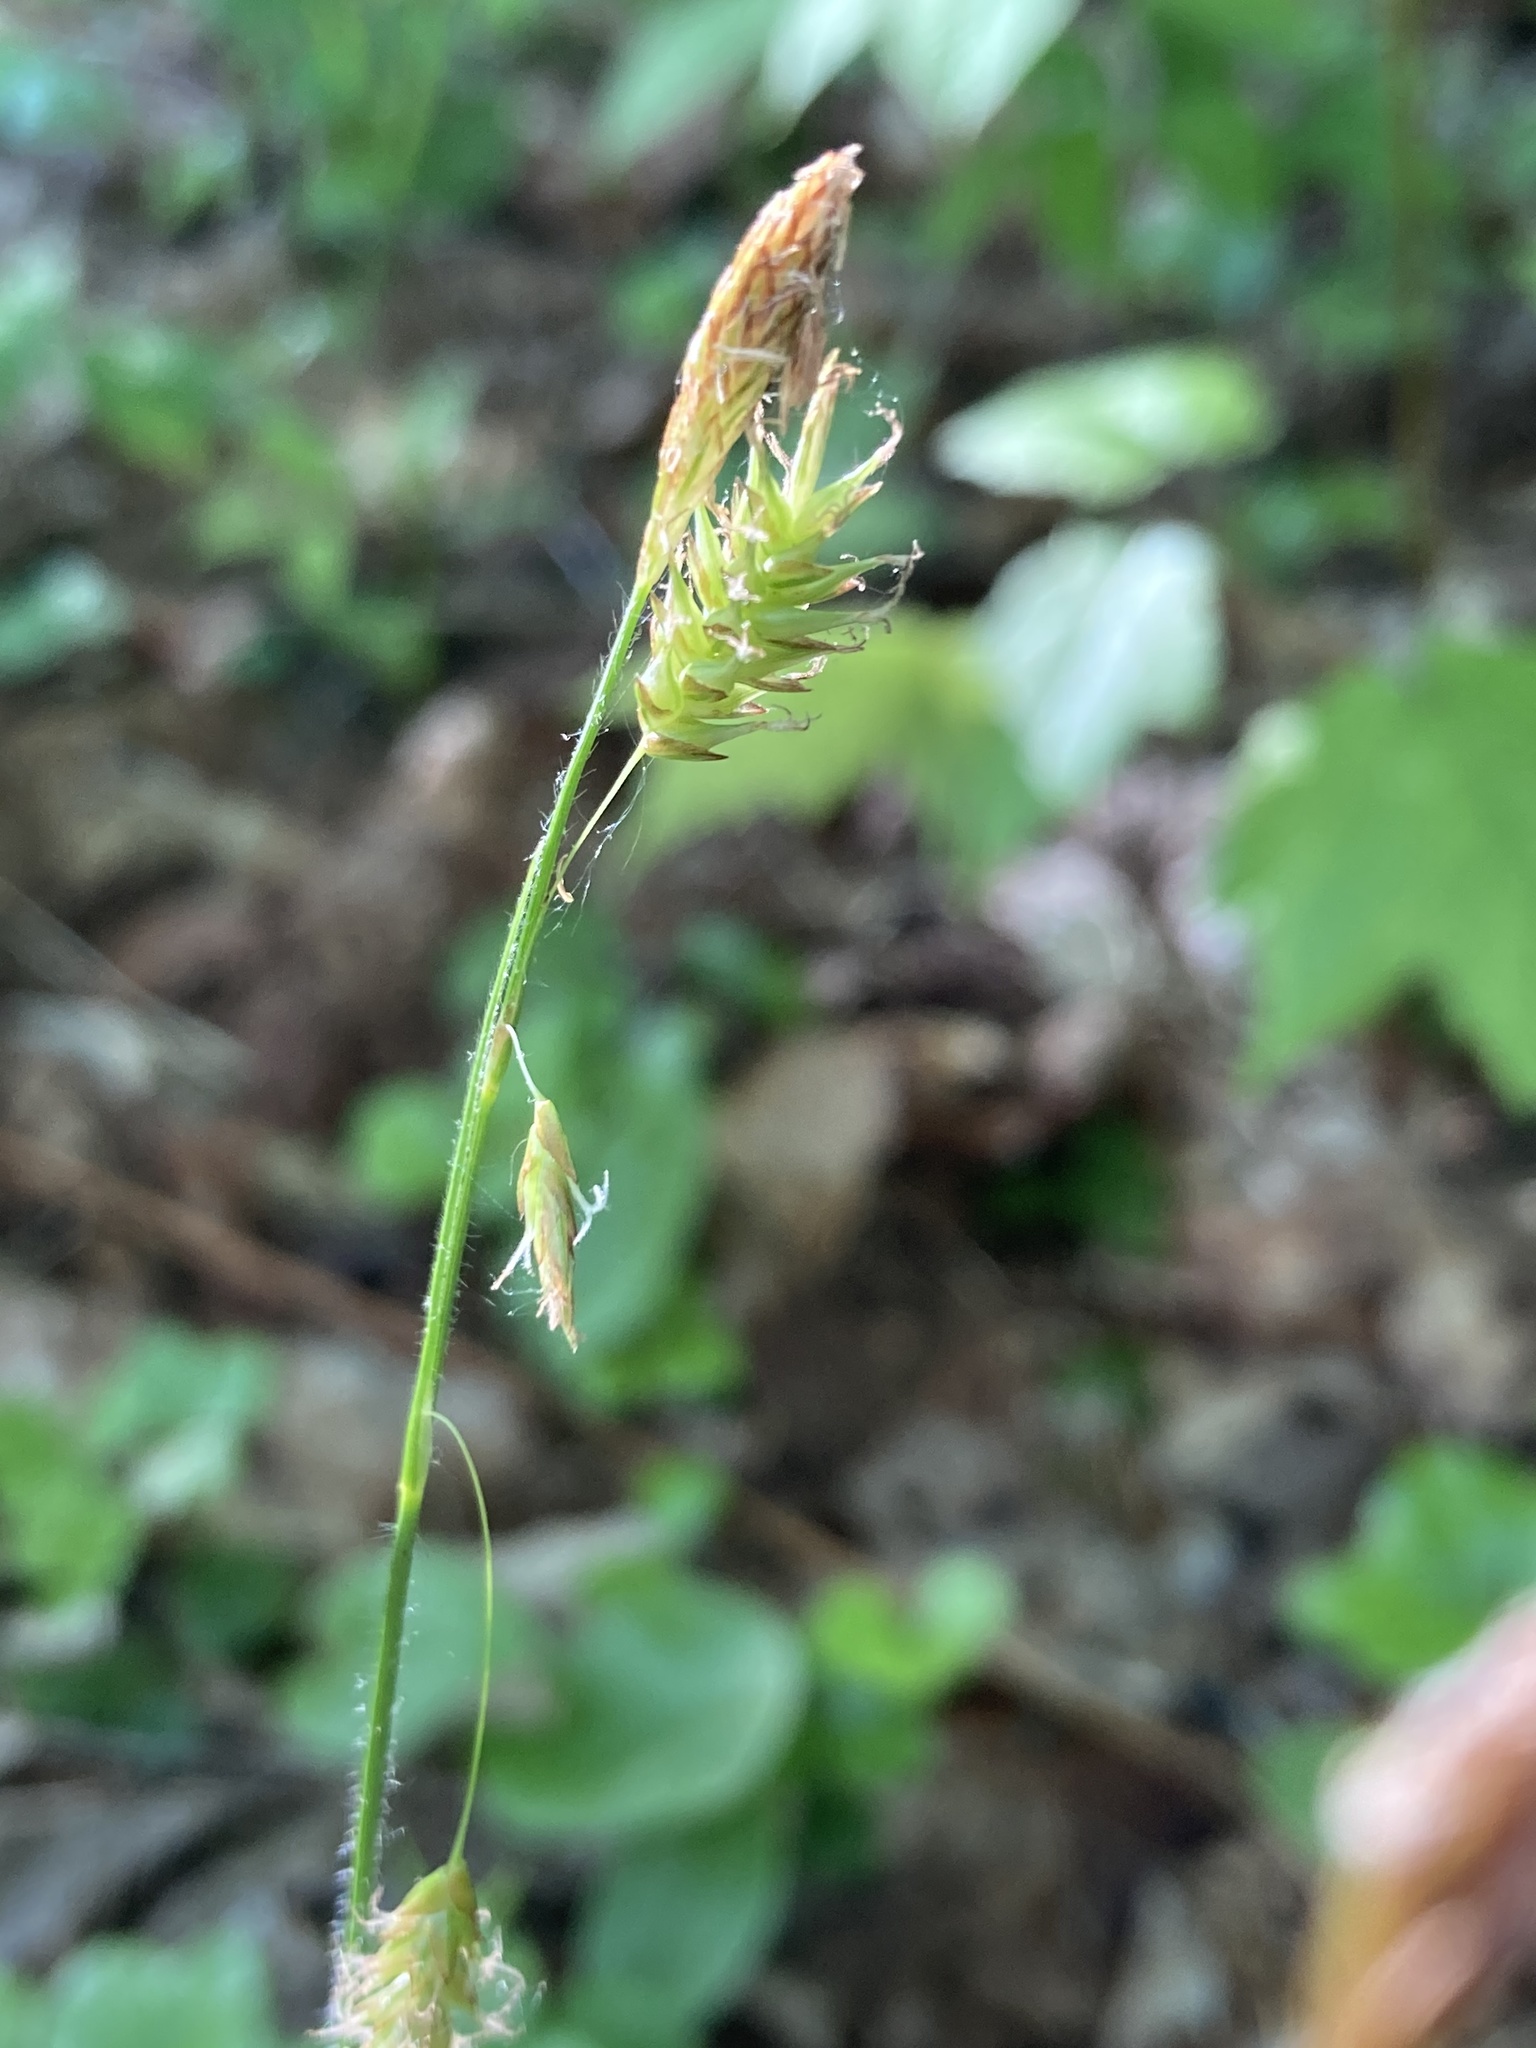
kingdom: Plantae
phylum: Tracheophyta
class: Liliopsida
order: Poales
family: Cyperaceae
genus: Carex
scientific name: Carex castanea
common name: Chestnut sedge
